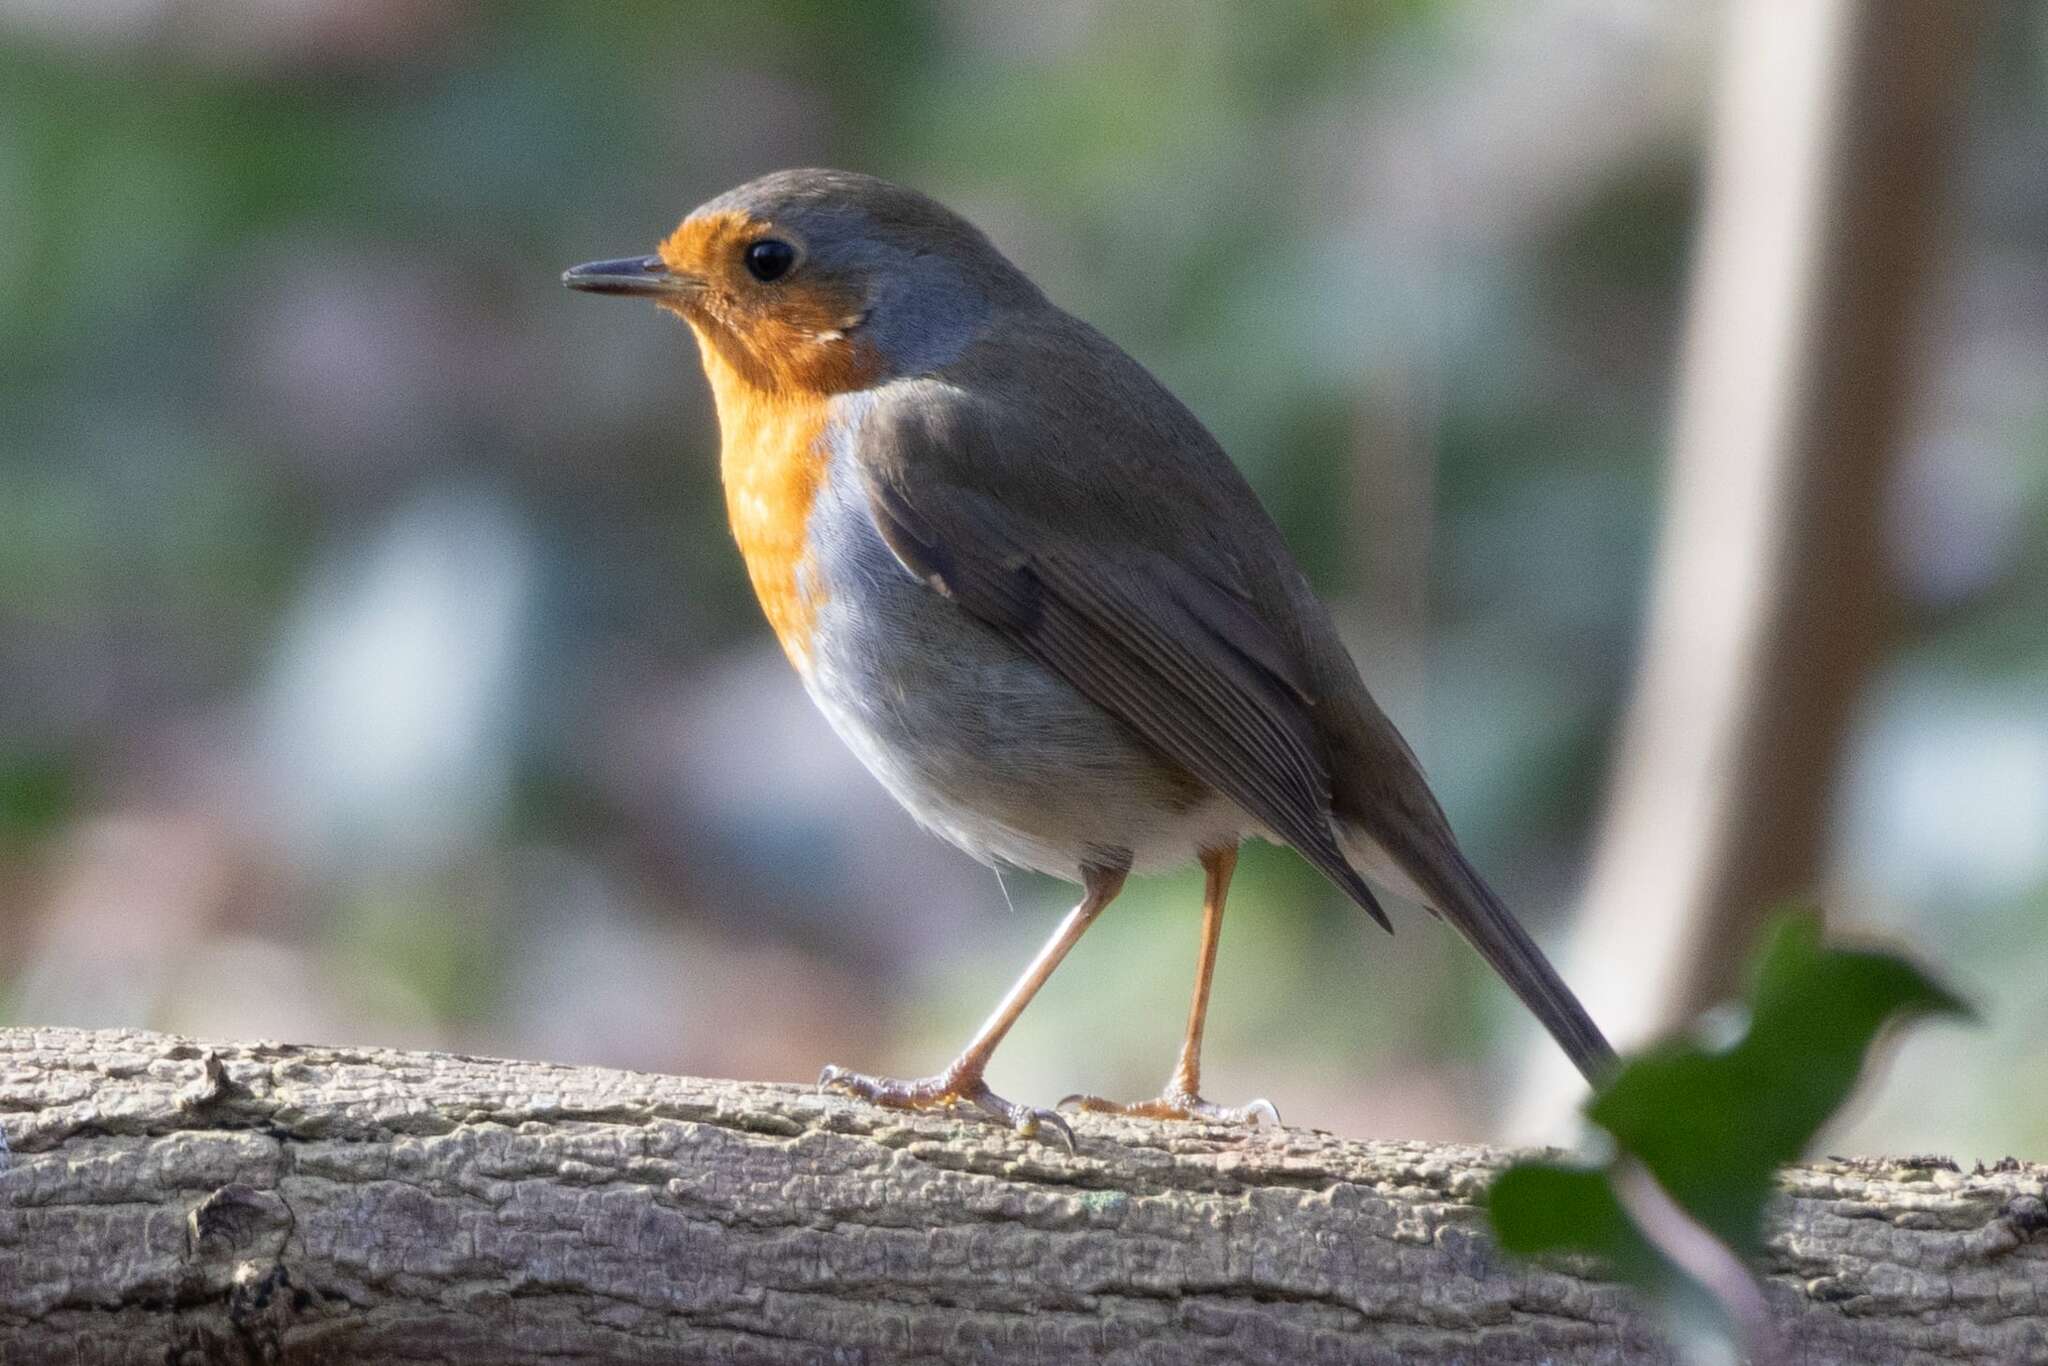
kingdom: Animalia
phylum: Chordata
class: Aves
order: Passeriformes
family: Muscicapidae
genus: Erithacus
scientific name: Erithacus rubecula
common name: European robin
